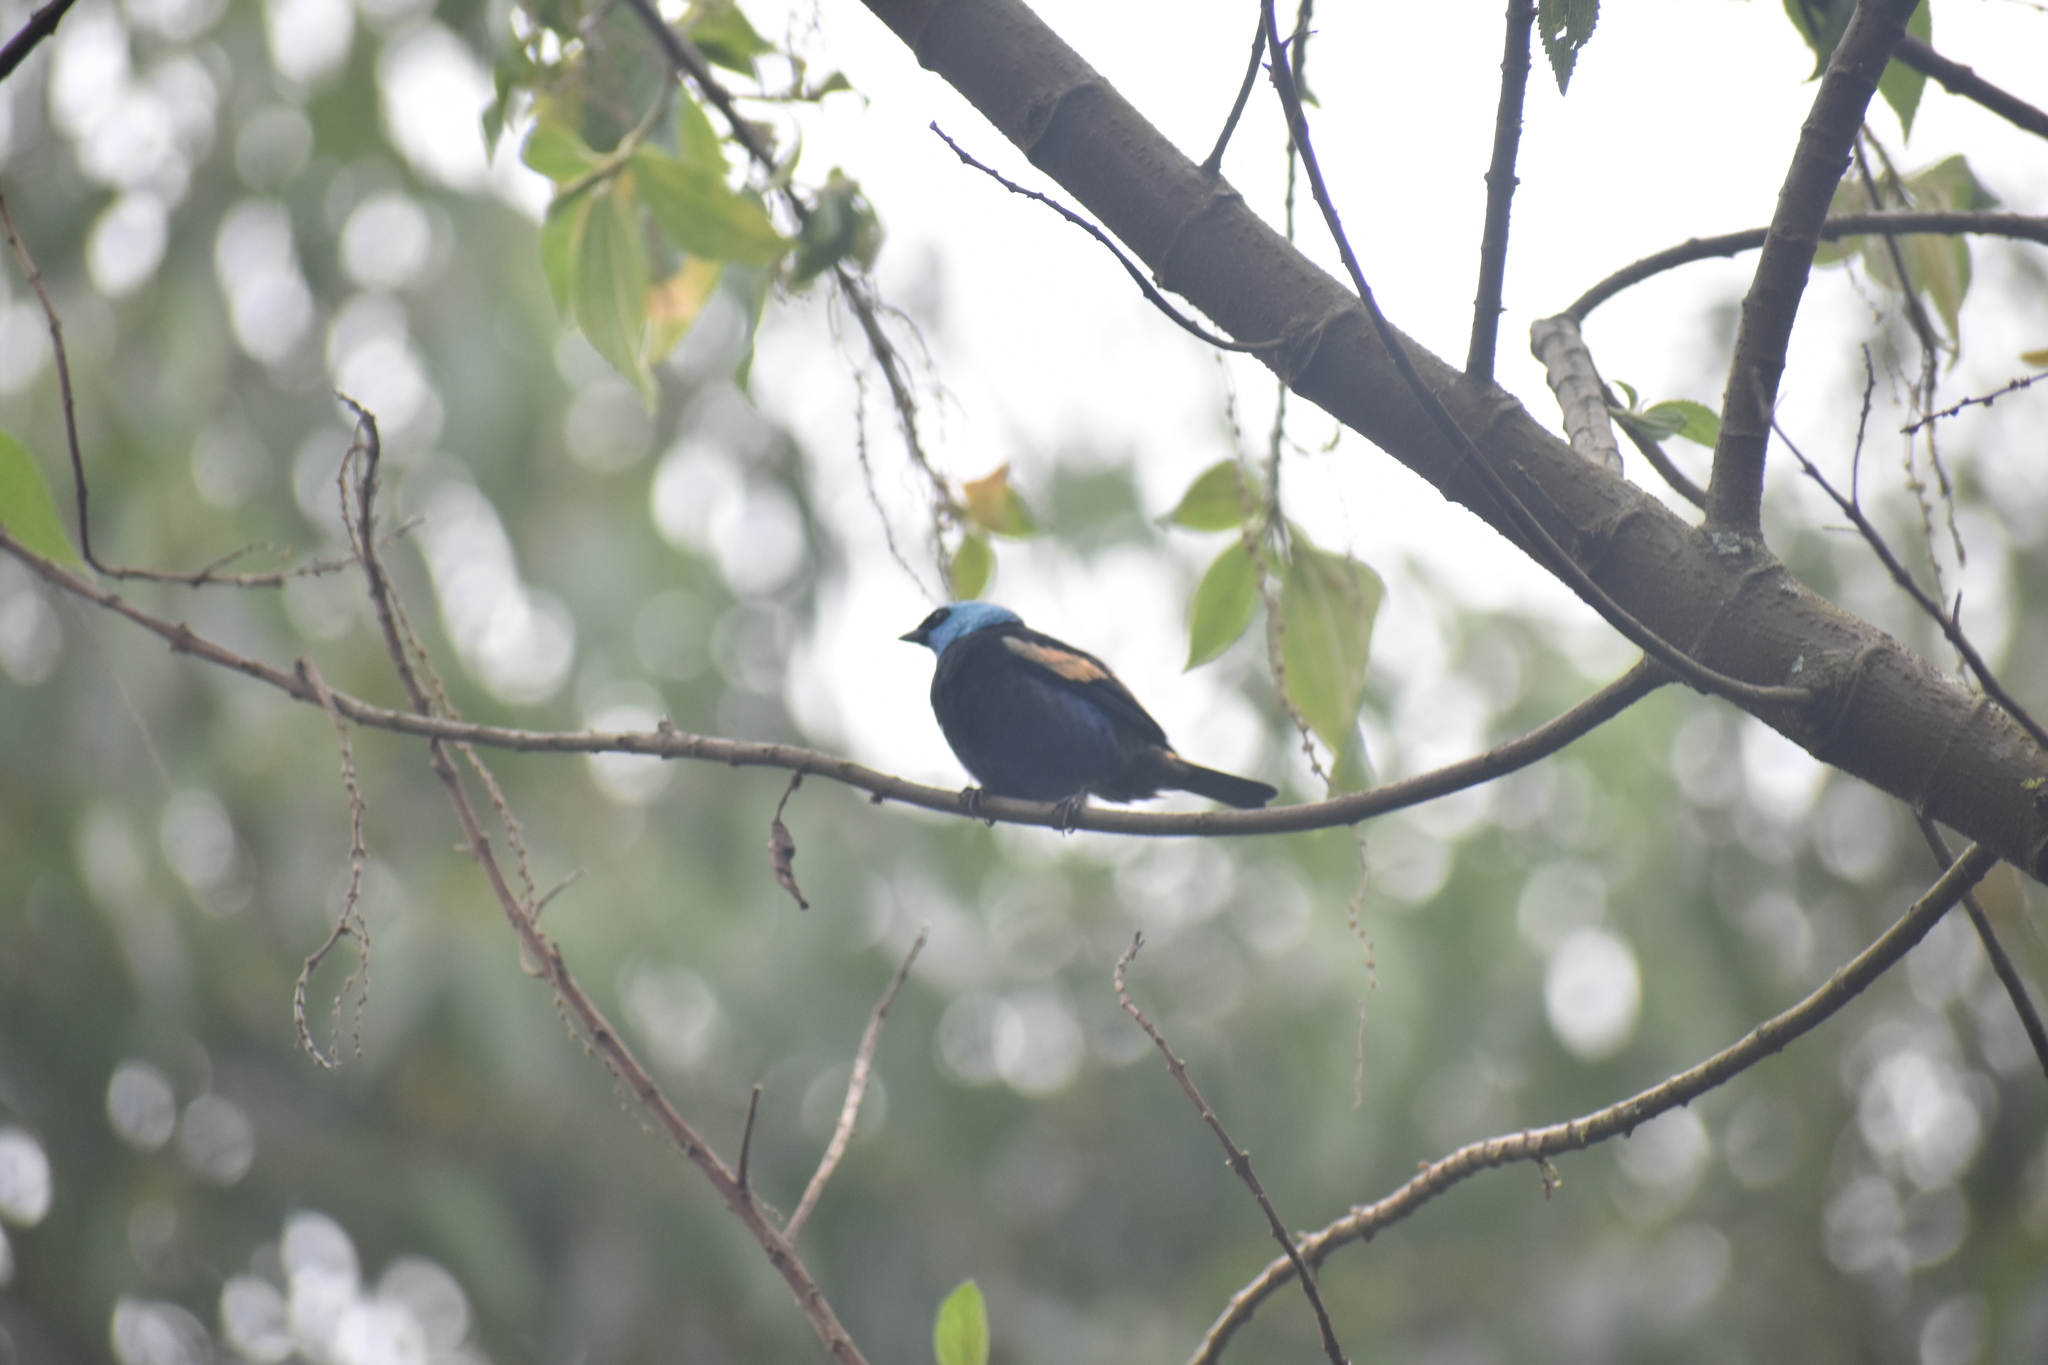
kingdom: Animalia
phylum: Chordata
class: Aves
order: Passeriformes
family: Thraupidae
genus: Stilpnia
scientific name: Stilpnia cyanicollis
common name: Blue-necked tanager
